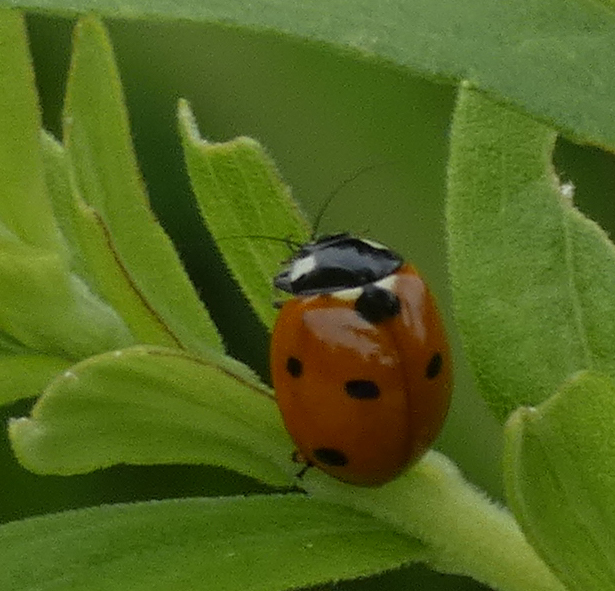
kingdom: Animalia
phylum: Arthropoda
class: Insecta
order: Coleoptera
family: Coccinellidae
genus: Coccinella
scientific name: Coccinella septempunctata
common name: Sevenspotted lady beetle
